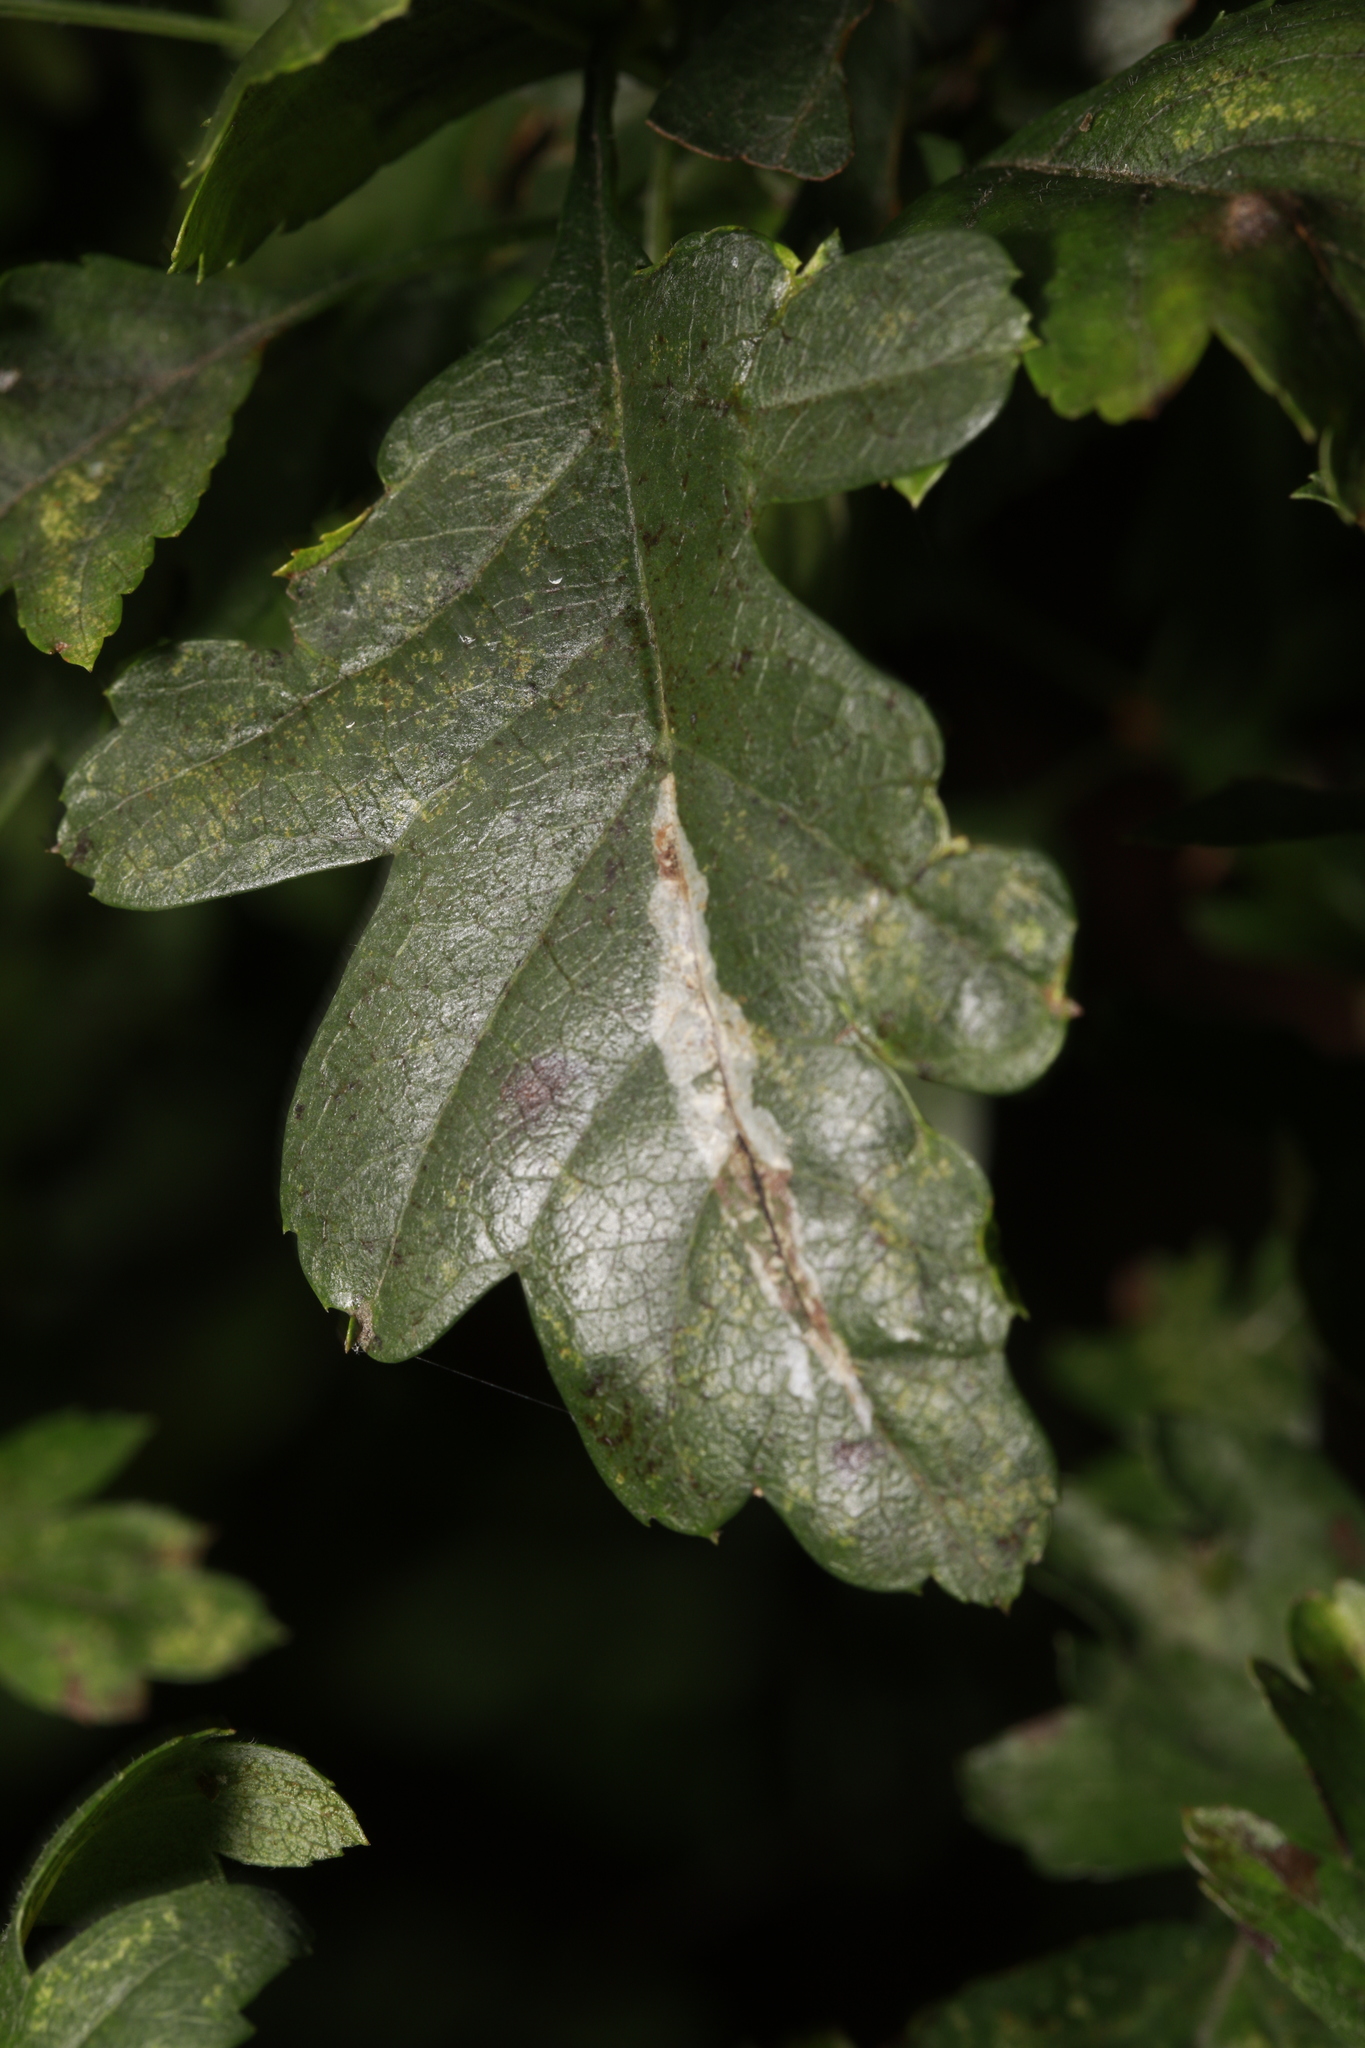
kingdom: Animalia
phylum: Arthropoda
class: Insecta
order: Lepidoptera
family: Gracillariidae
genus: Phyllonorycter
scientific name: Phyllonorycter leucographella
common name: Firethorn leaf-miner
